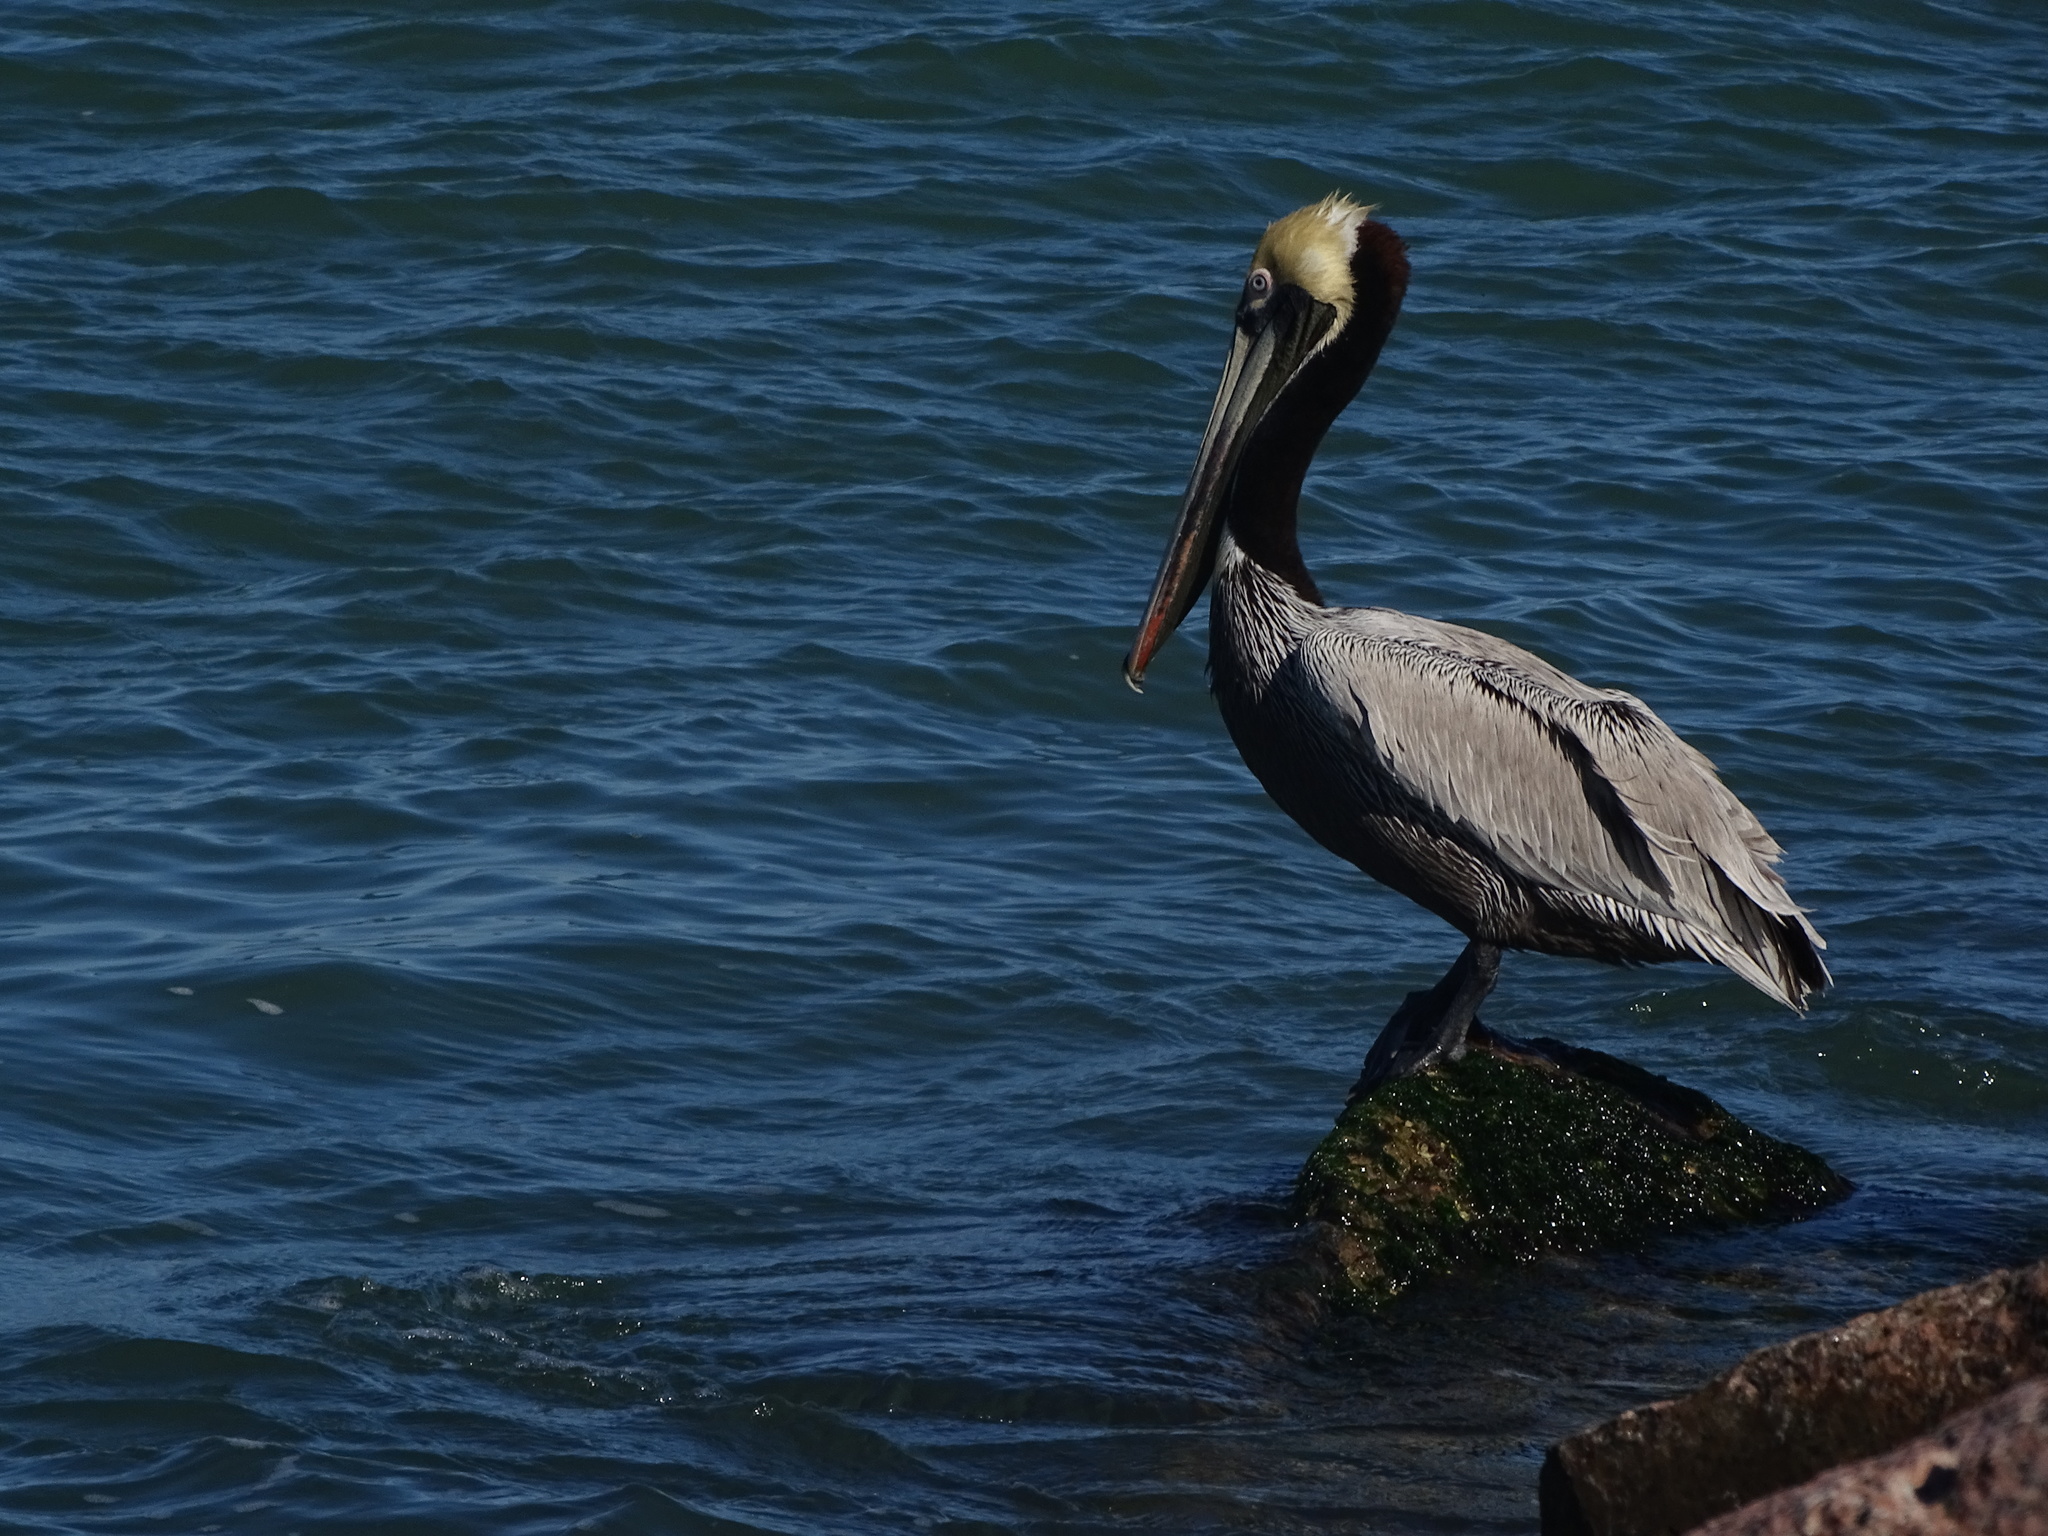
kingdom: Animalia
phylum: Chordata
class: Aves
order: Pelecaniformes
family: Pelecanidae
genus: Pelecanus
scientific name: Pelecanus occidentalis
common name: Brown pelican
